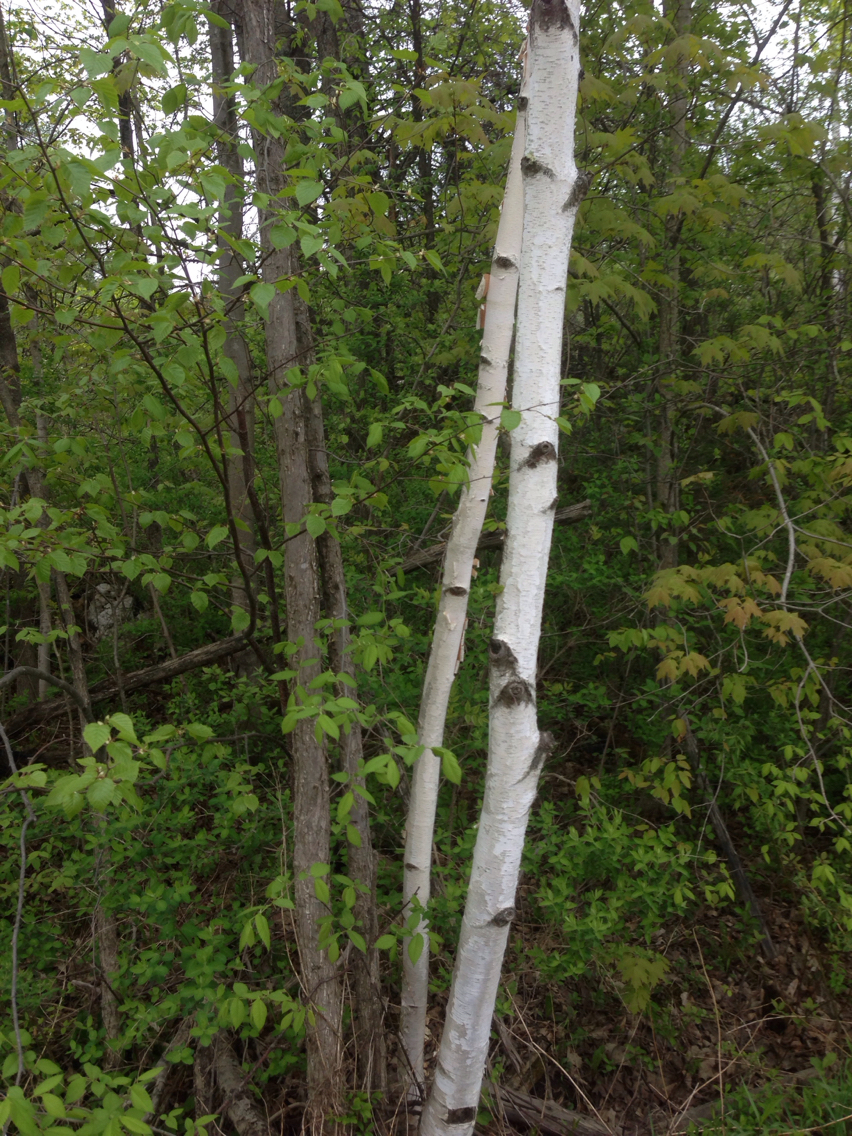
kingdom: Plantae
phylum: Tracheophyta
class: Magnoliopsida
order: Fagales
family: Betulaceae
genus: Betula
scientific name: Betula papyrifera
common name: Paper birch
